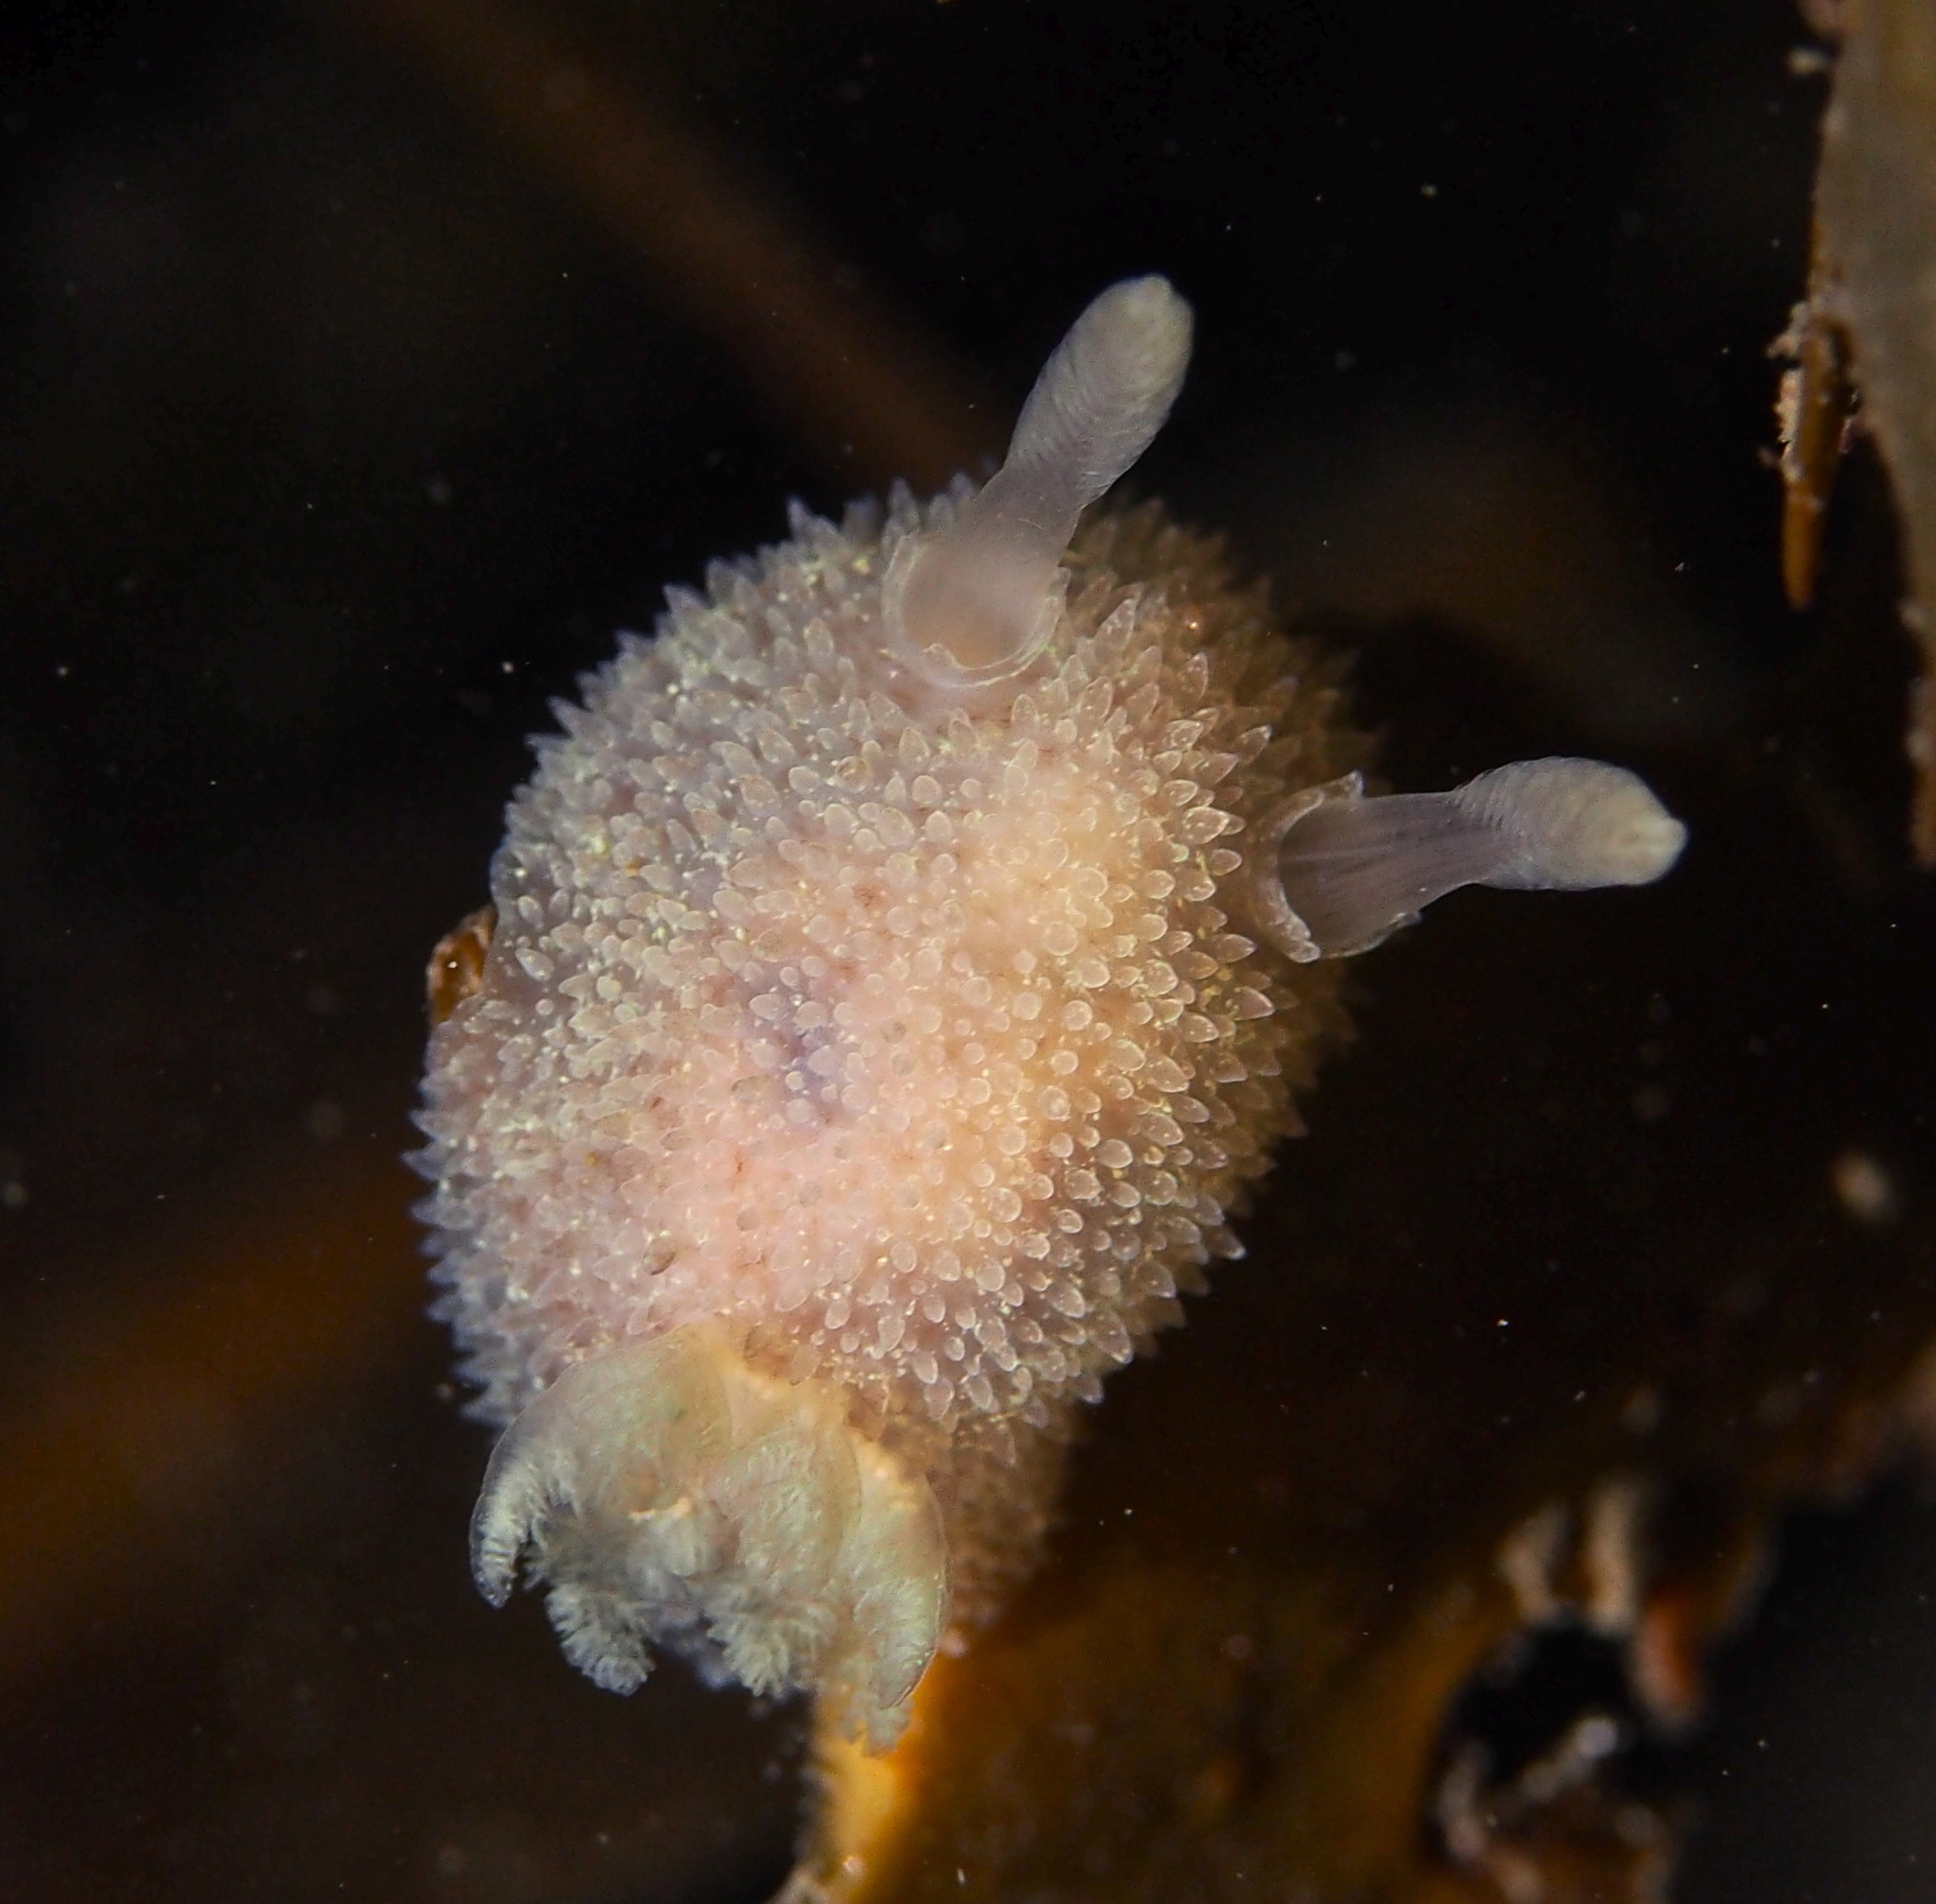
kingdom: Animalia
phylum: Mollusca
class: Gastropoda
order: Nudibranchia
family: Onchidorididae
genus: Acanthodoris
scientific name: Acanthodoris pilosa
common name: Hairy spiny doris
